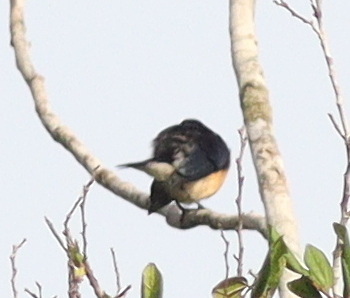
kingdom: Animalia
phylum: Chordata
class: Aves
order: Passeriformes
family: Hyliotidae
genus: Hyliota
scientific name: Hyliota violacea
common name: Violet-backed hyliota
